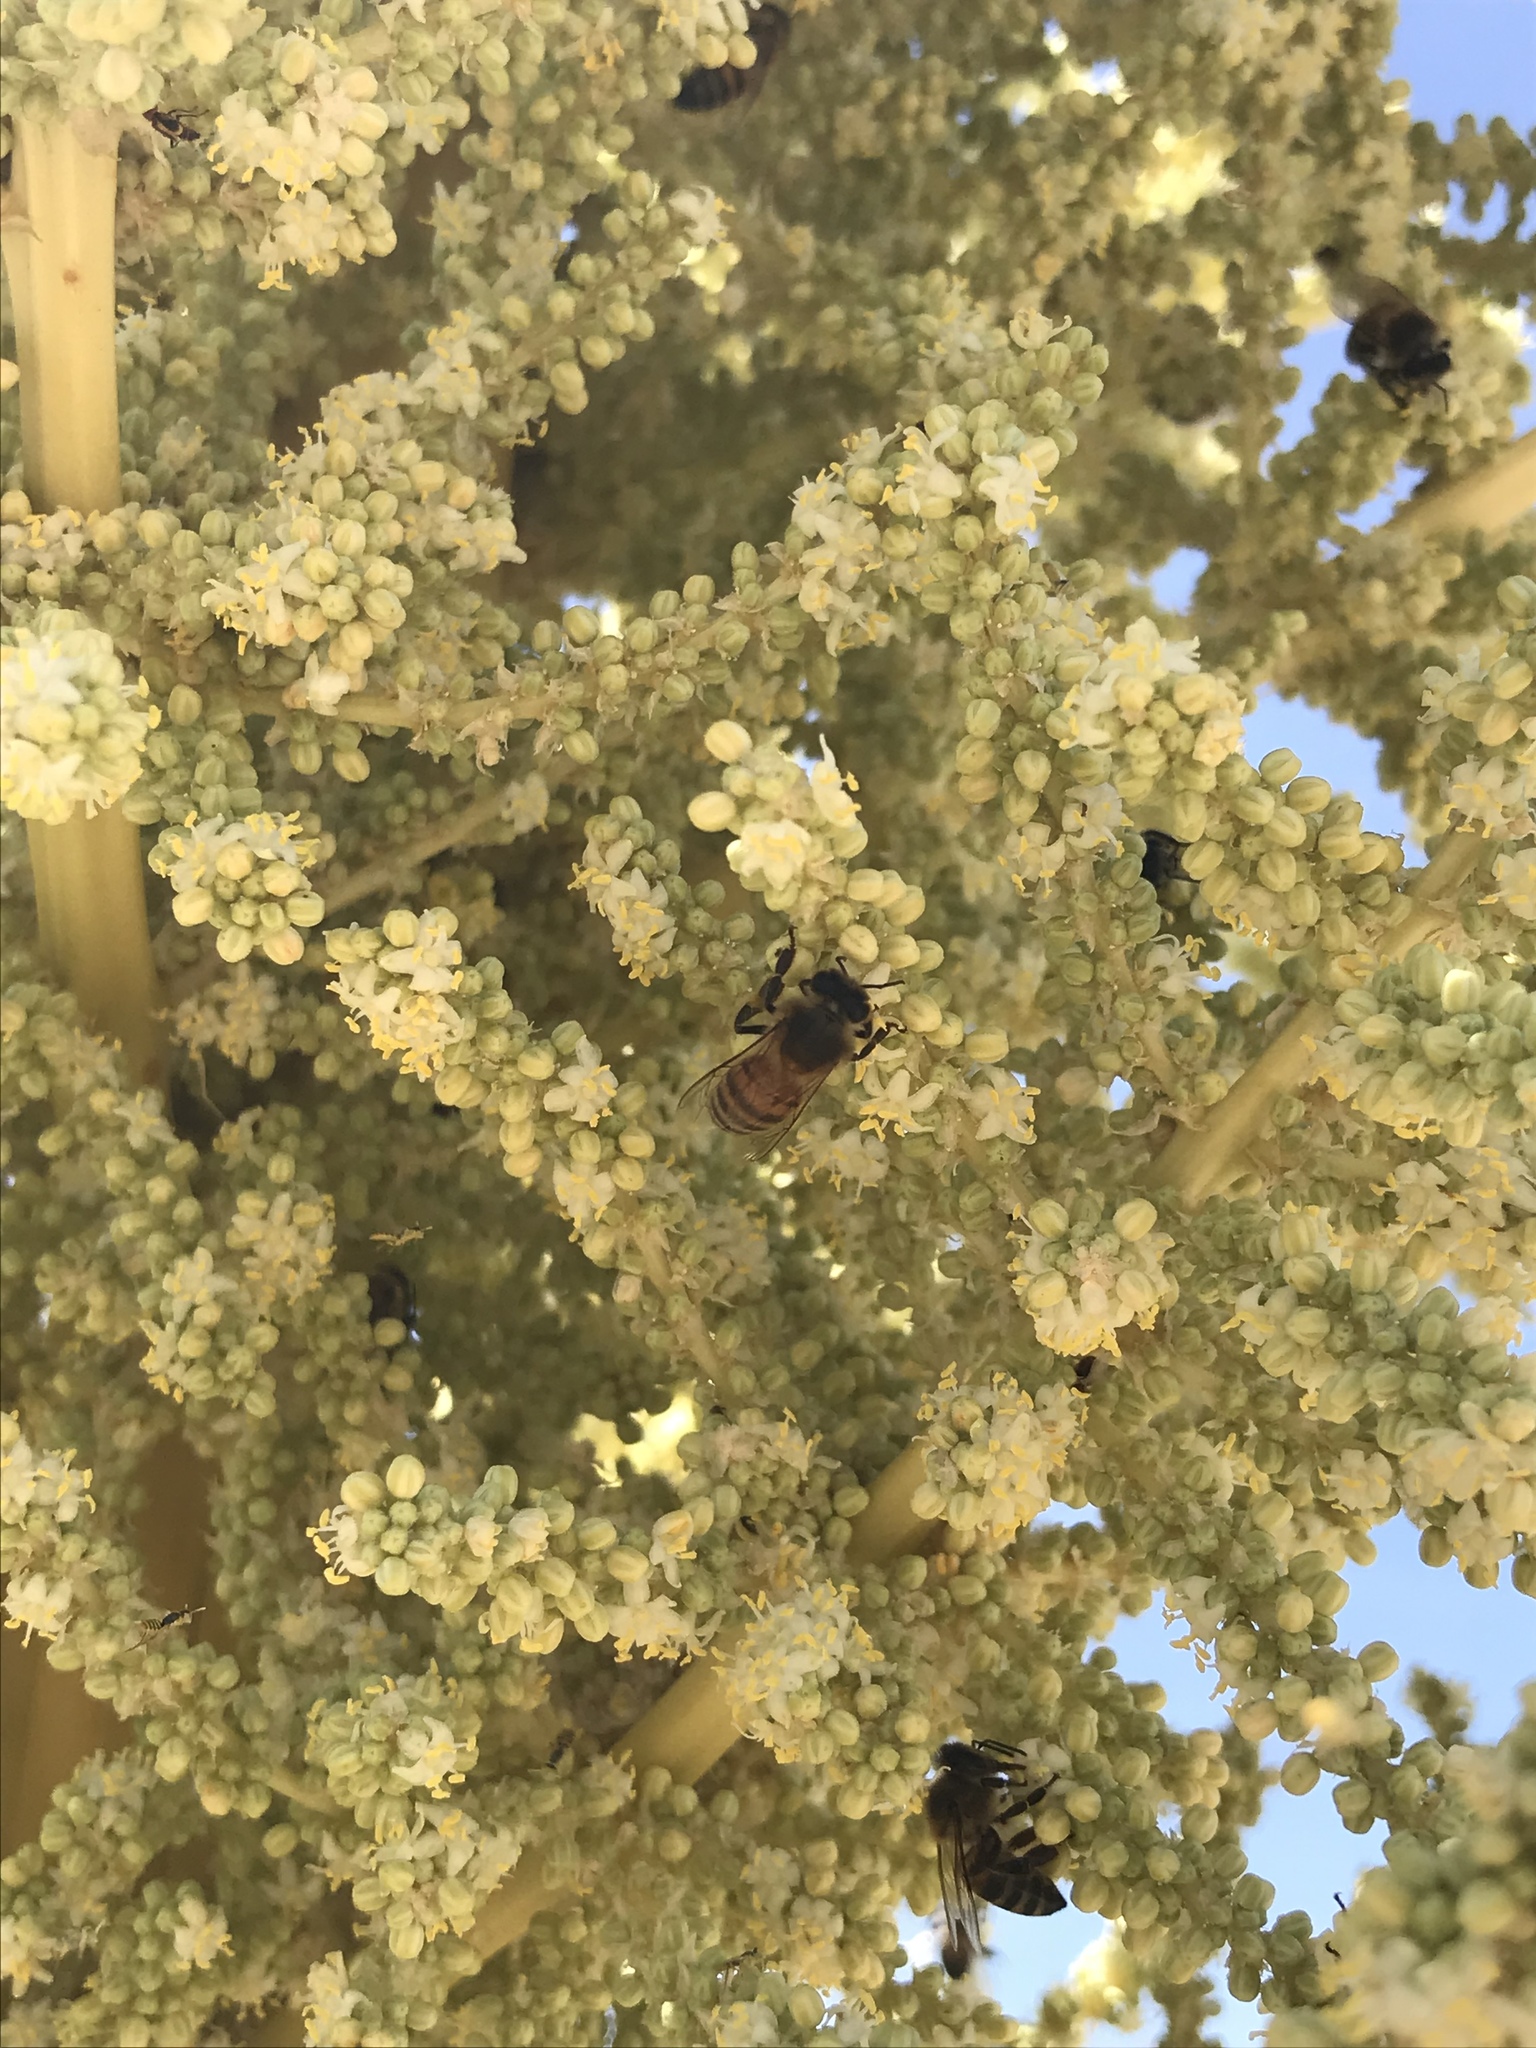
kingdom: Plantae
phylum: Tracheophyta
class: Liliopsida
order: Asparagales
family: Asparagaceae
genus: Nolina
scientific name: Nolina bigelovii
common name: Bigelow bear-grass
